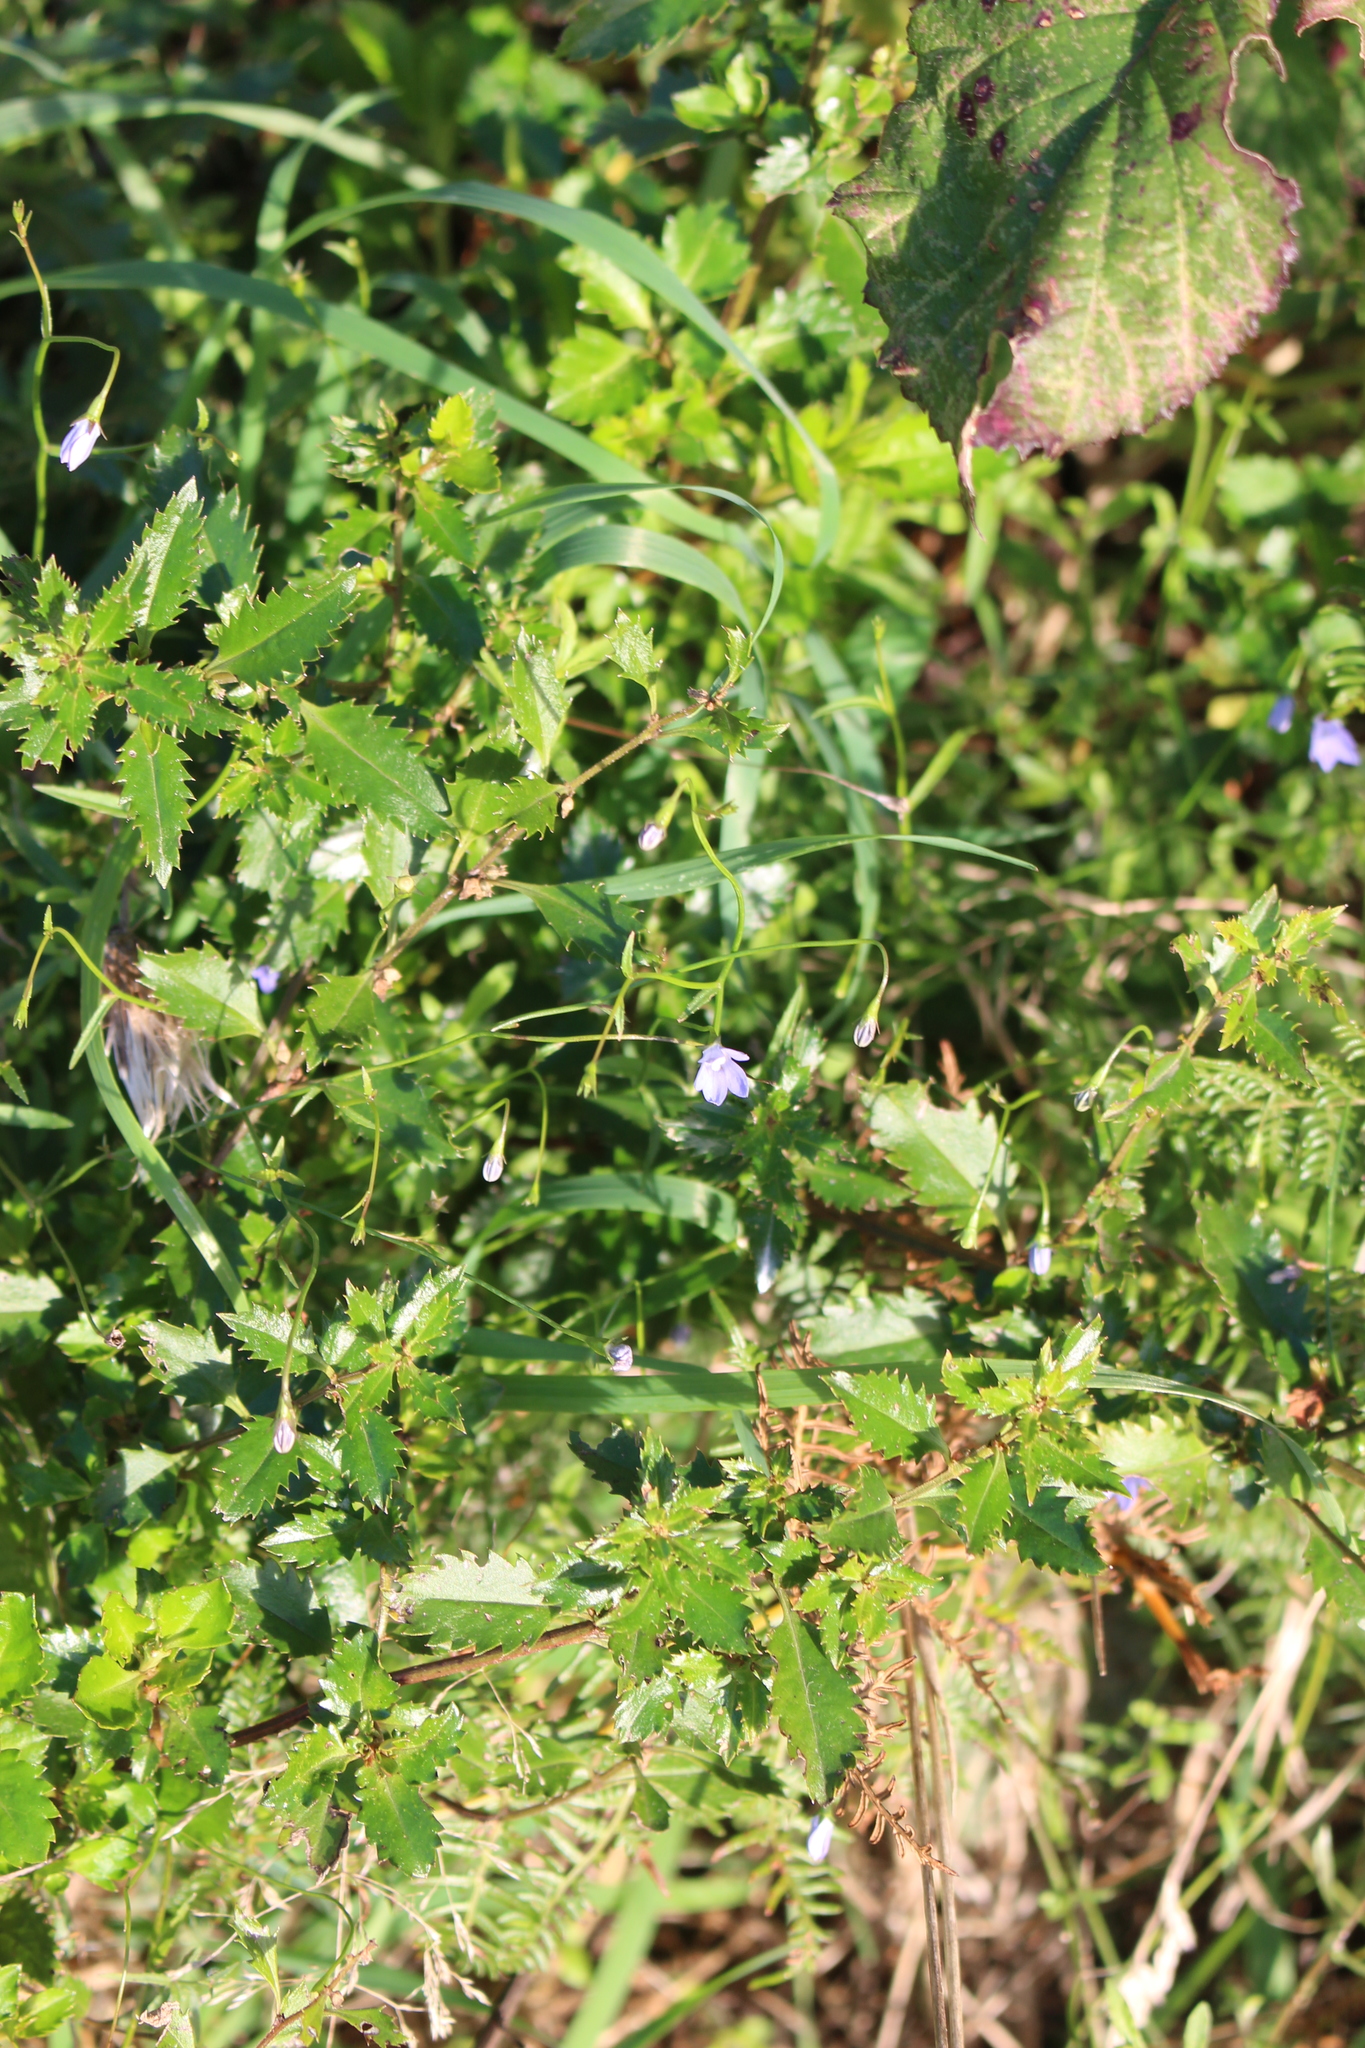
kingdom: Plantae
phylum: Tracheophyta
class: Magnoliopsida
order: Asterales
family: Campanulaceae
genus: Wahlenbergia
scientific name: Wahlenbergia gracilis
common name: Harebell
